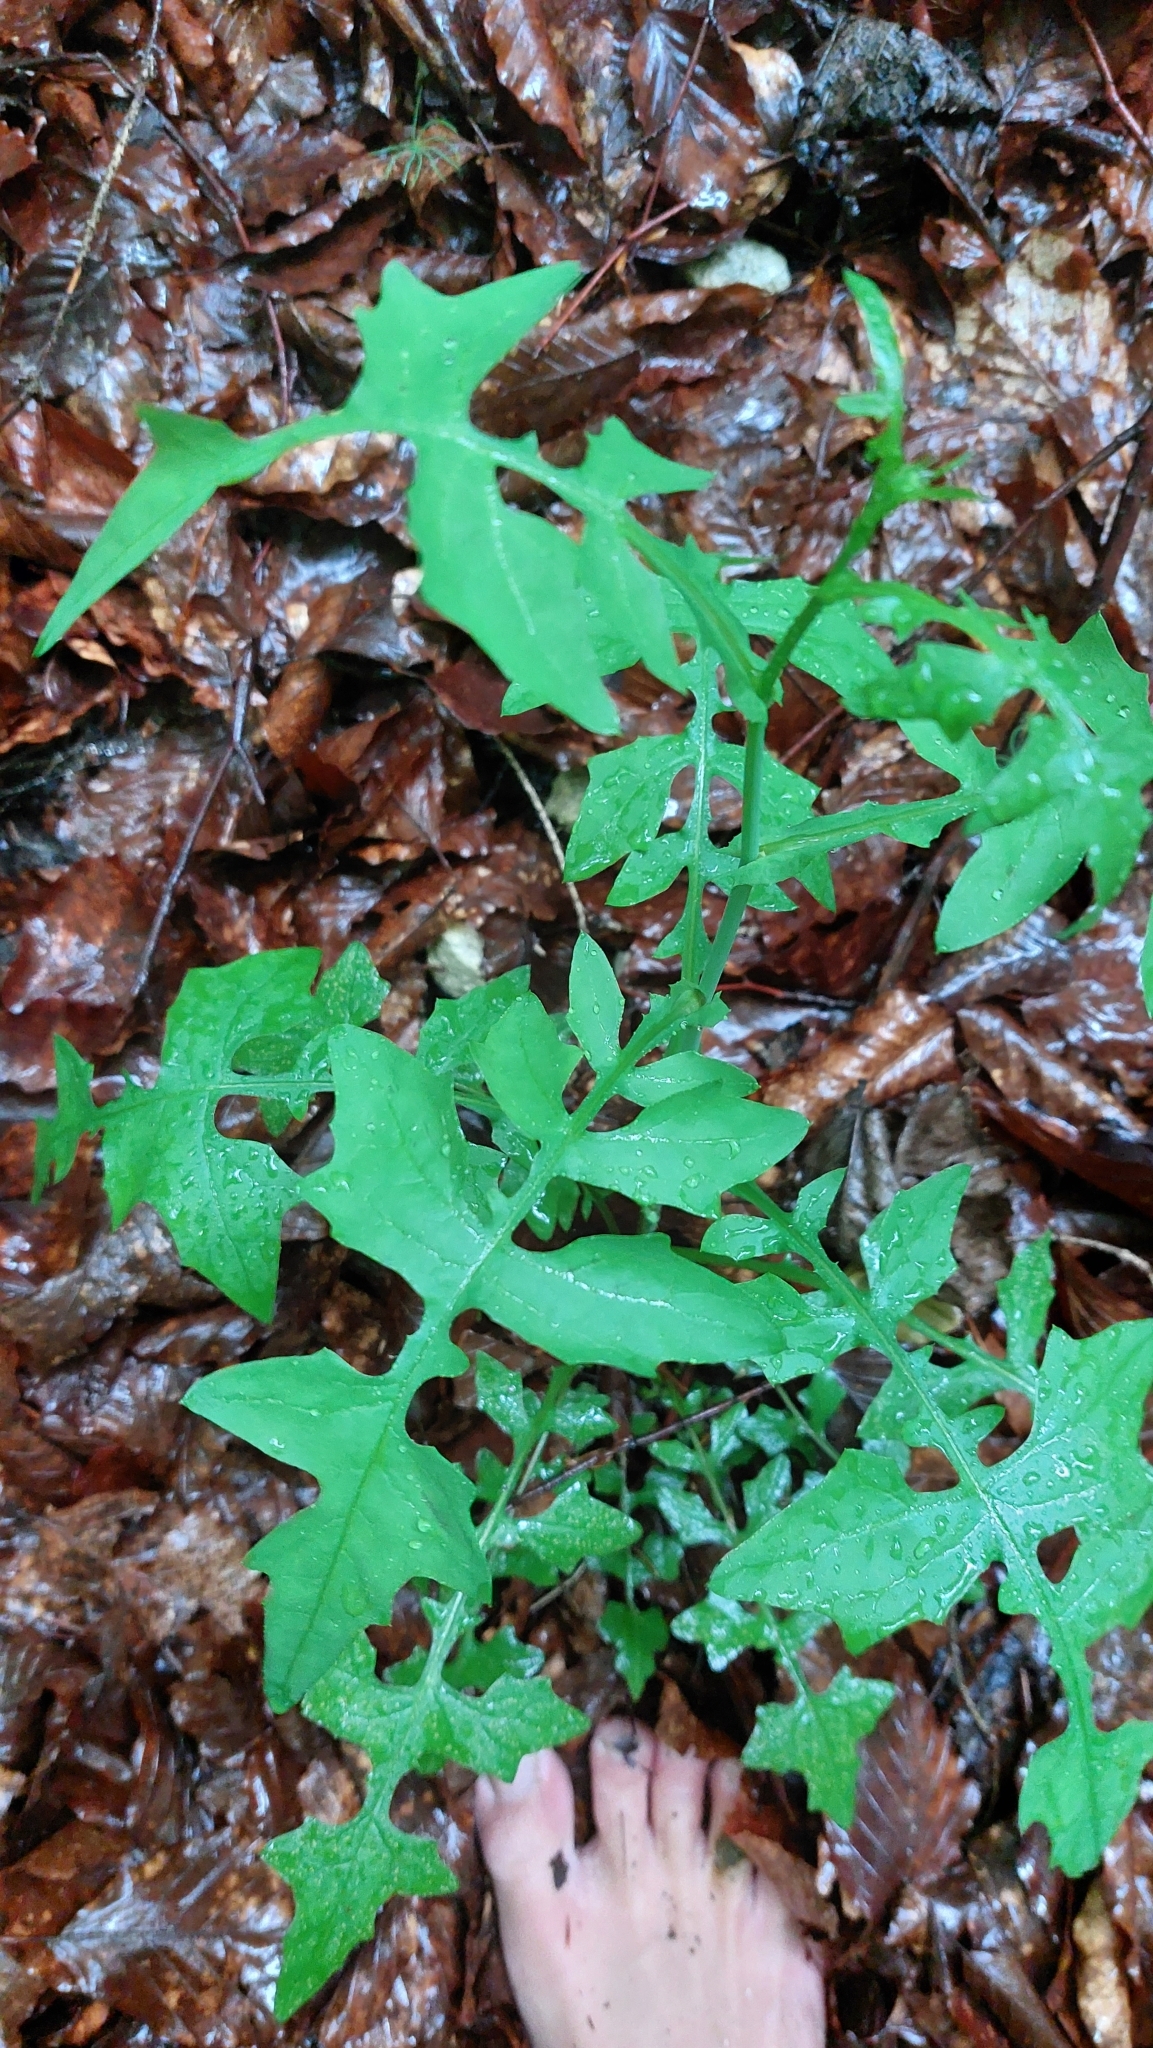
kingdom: Plantae
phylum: Tracheophyta
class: Magnoliopsida
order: Asterales
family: Asteraceae
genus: Mycelis
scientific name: Mycelis muralis
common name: Wall lettuce
